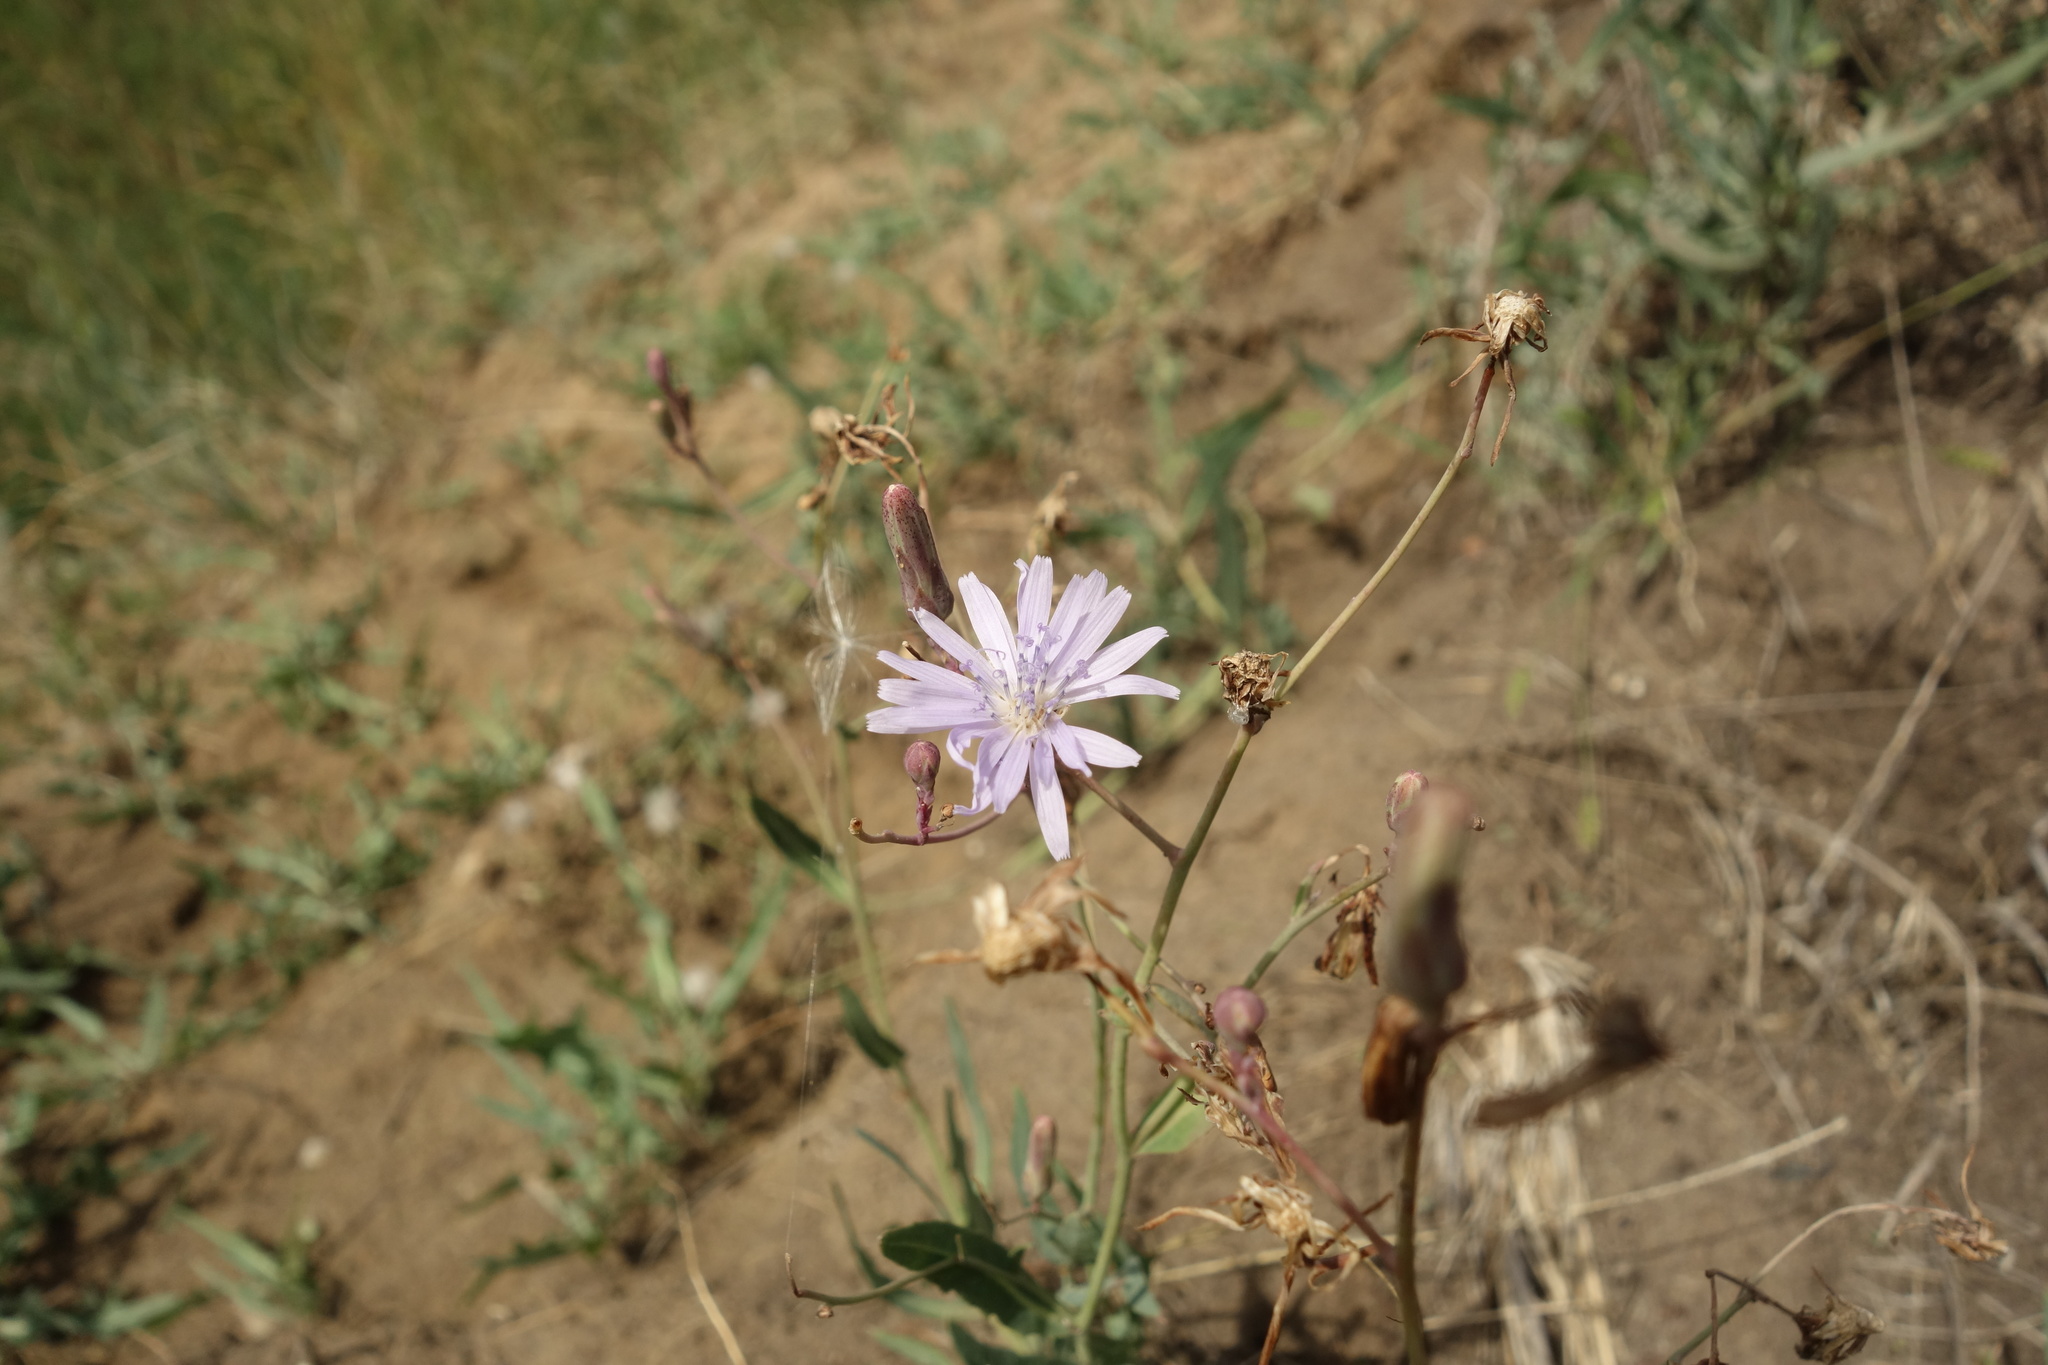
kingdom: Plantae
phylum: Tracheophyta
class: Magnoliopsida
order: Asterales
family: Asteraceae
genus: Lactuca
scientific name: Lactuca tatarica
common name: Blue lettuce
